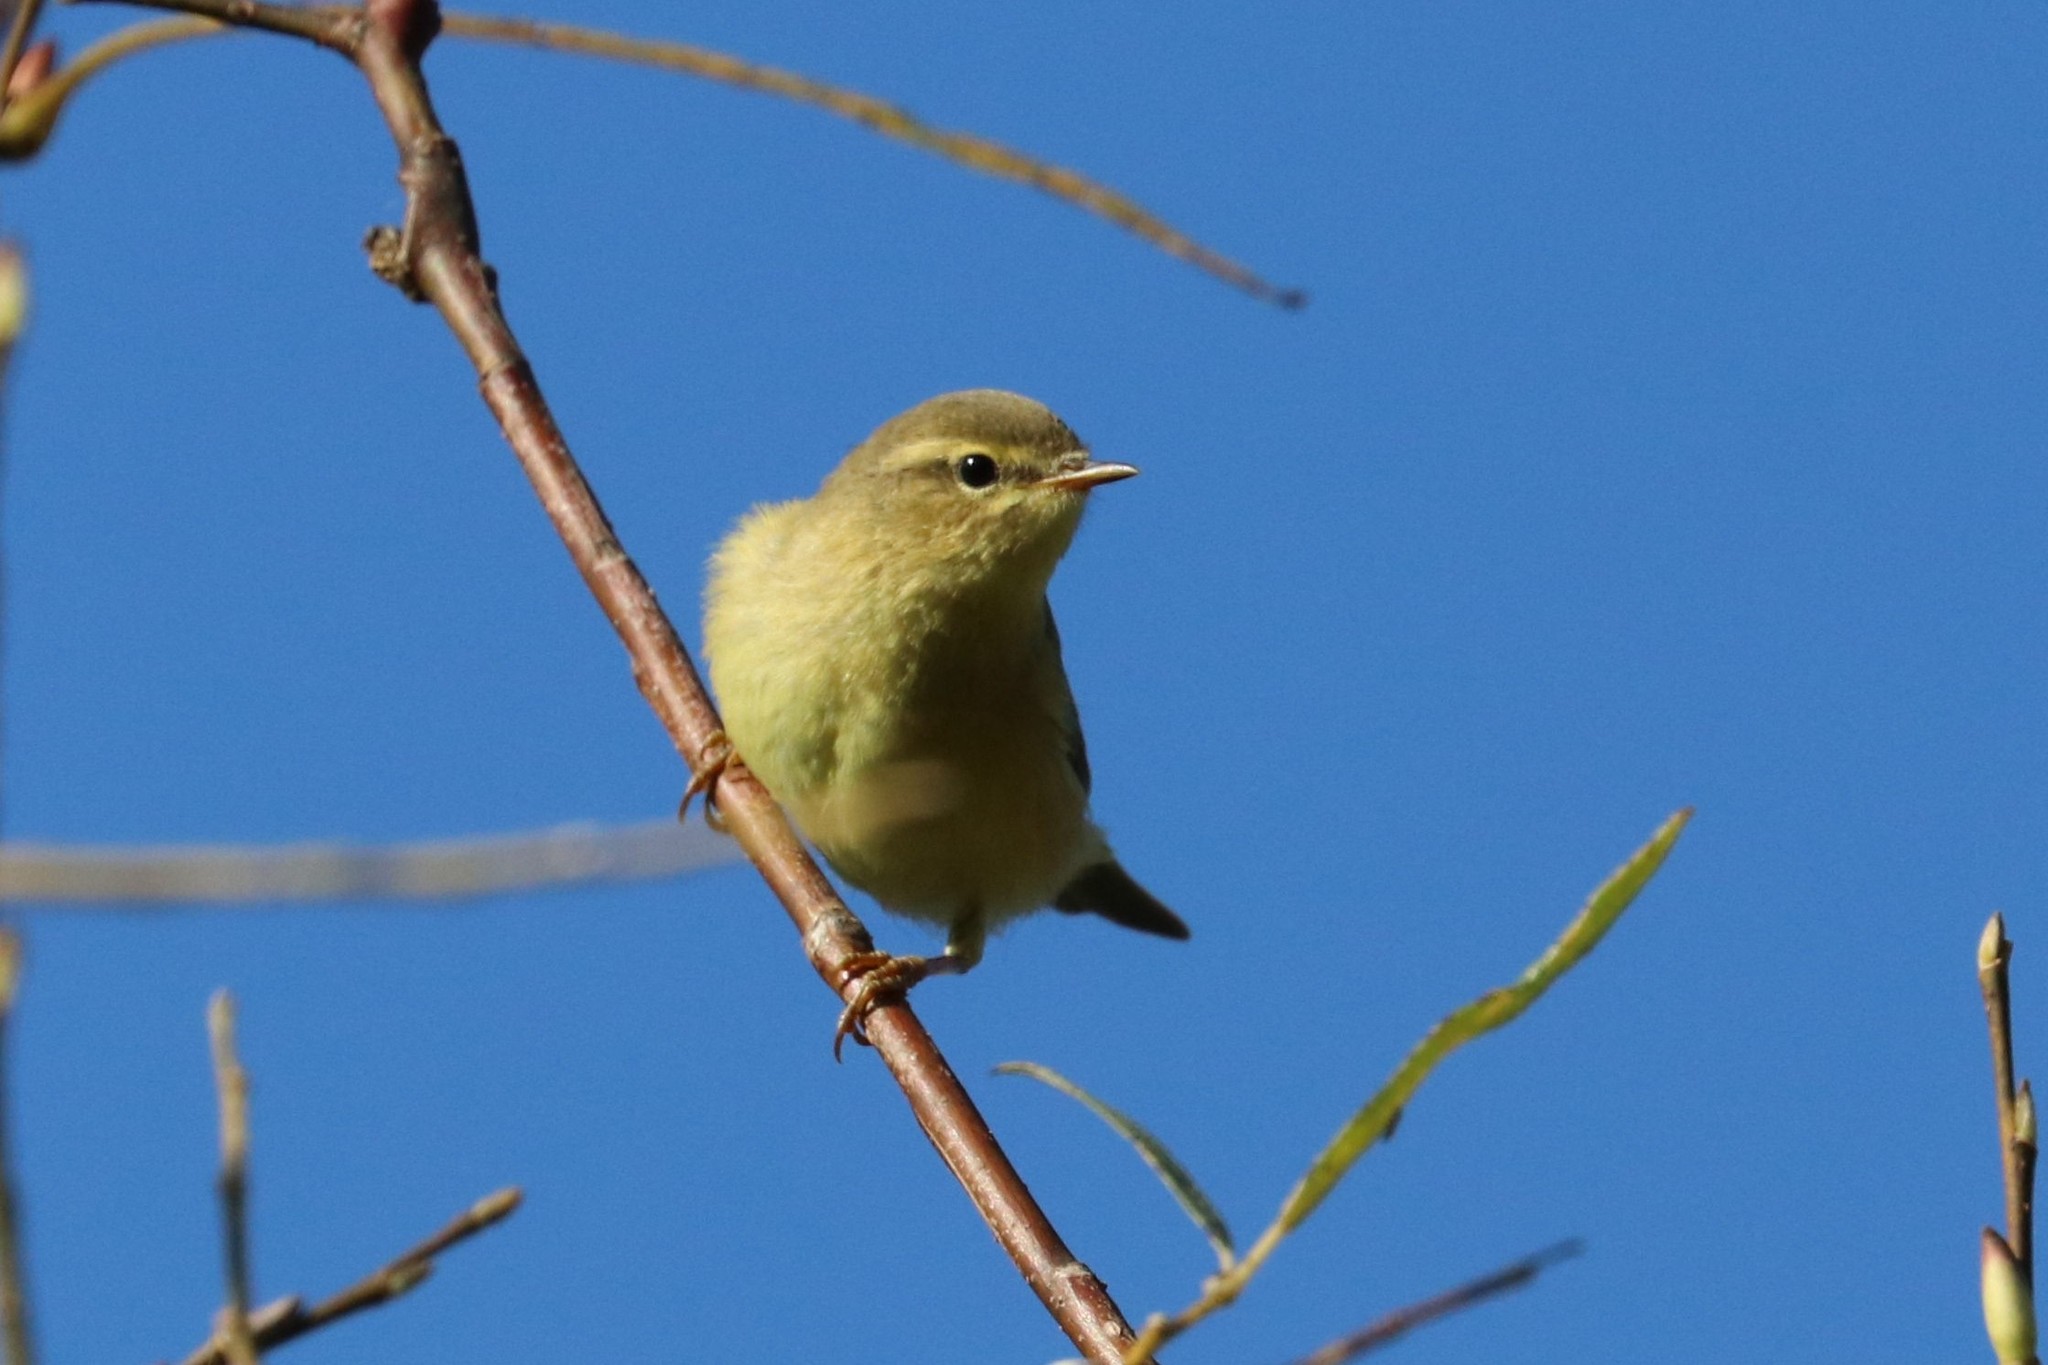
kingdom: Animalia
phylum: Chordata
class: Aves
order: Passeriformes
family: Phylloscopidae
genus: Phylloscopus
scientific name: Phylloscopus trochilus
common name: Willow warbler
